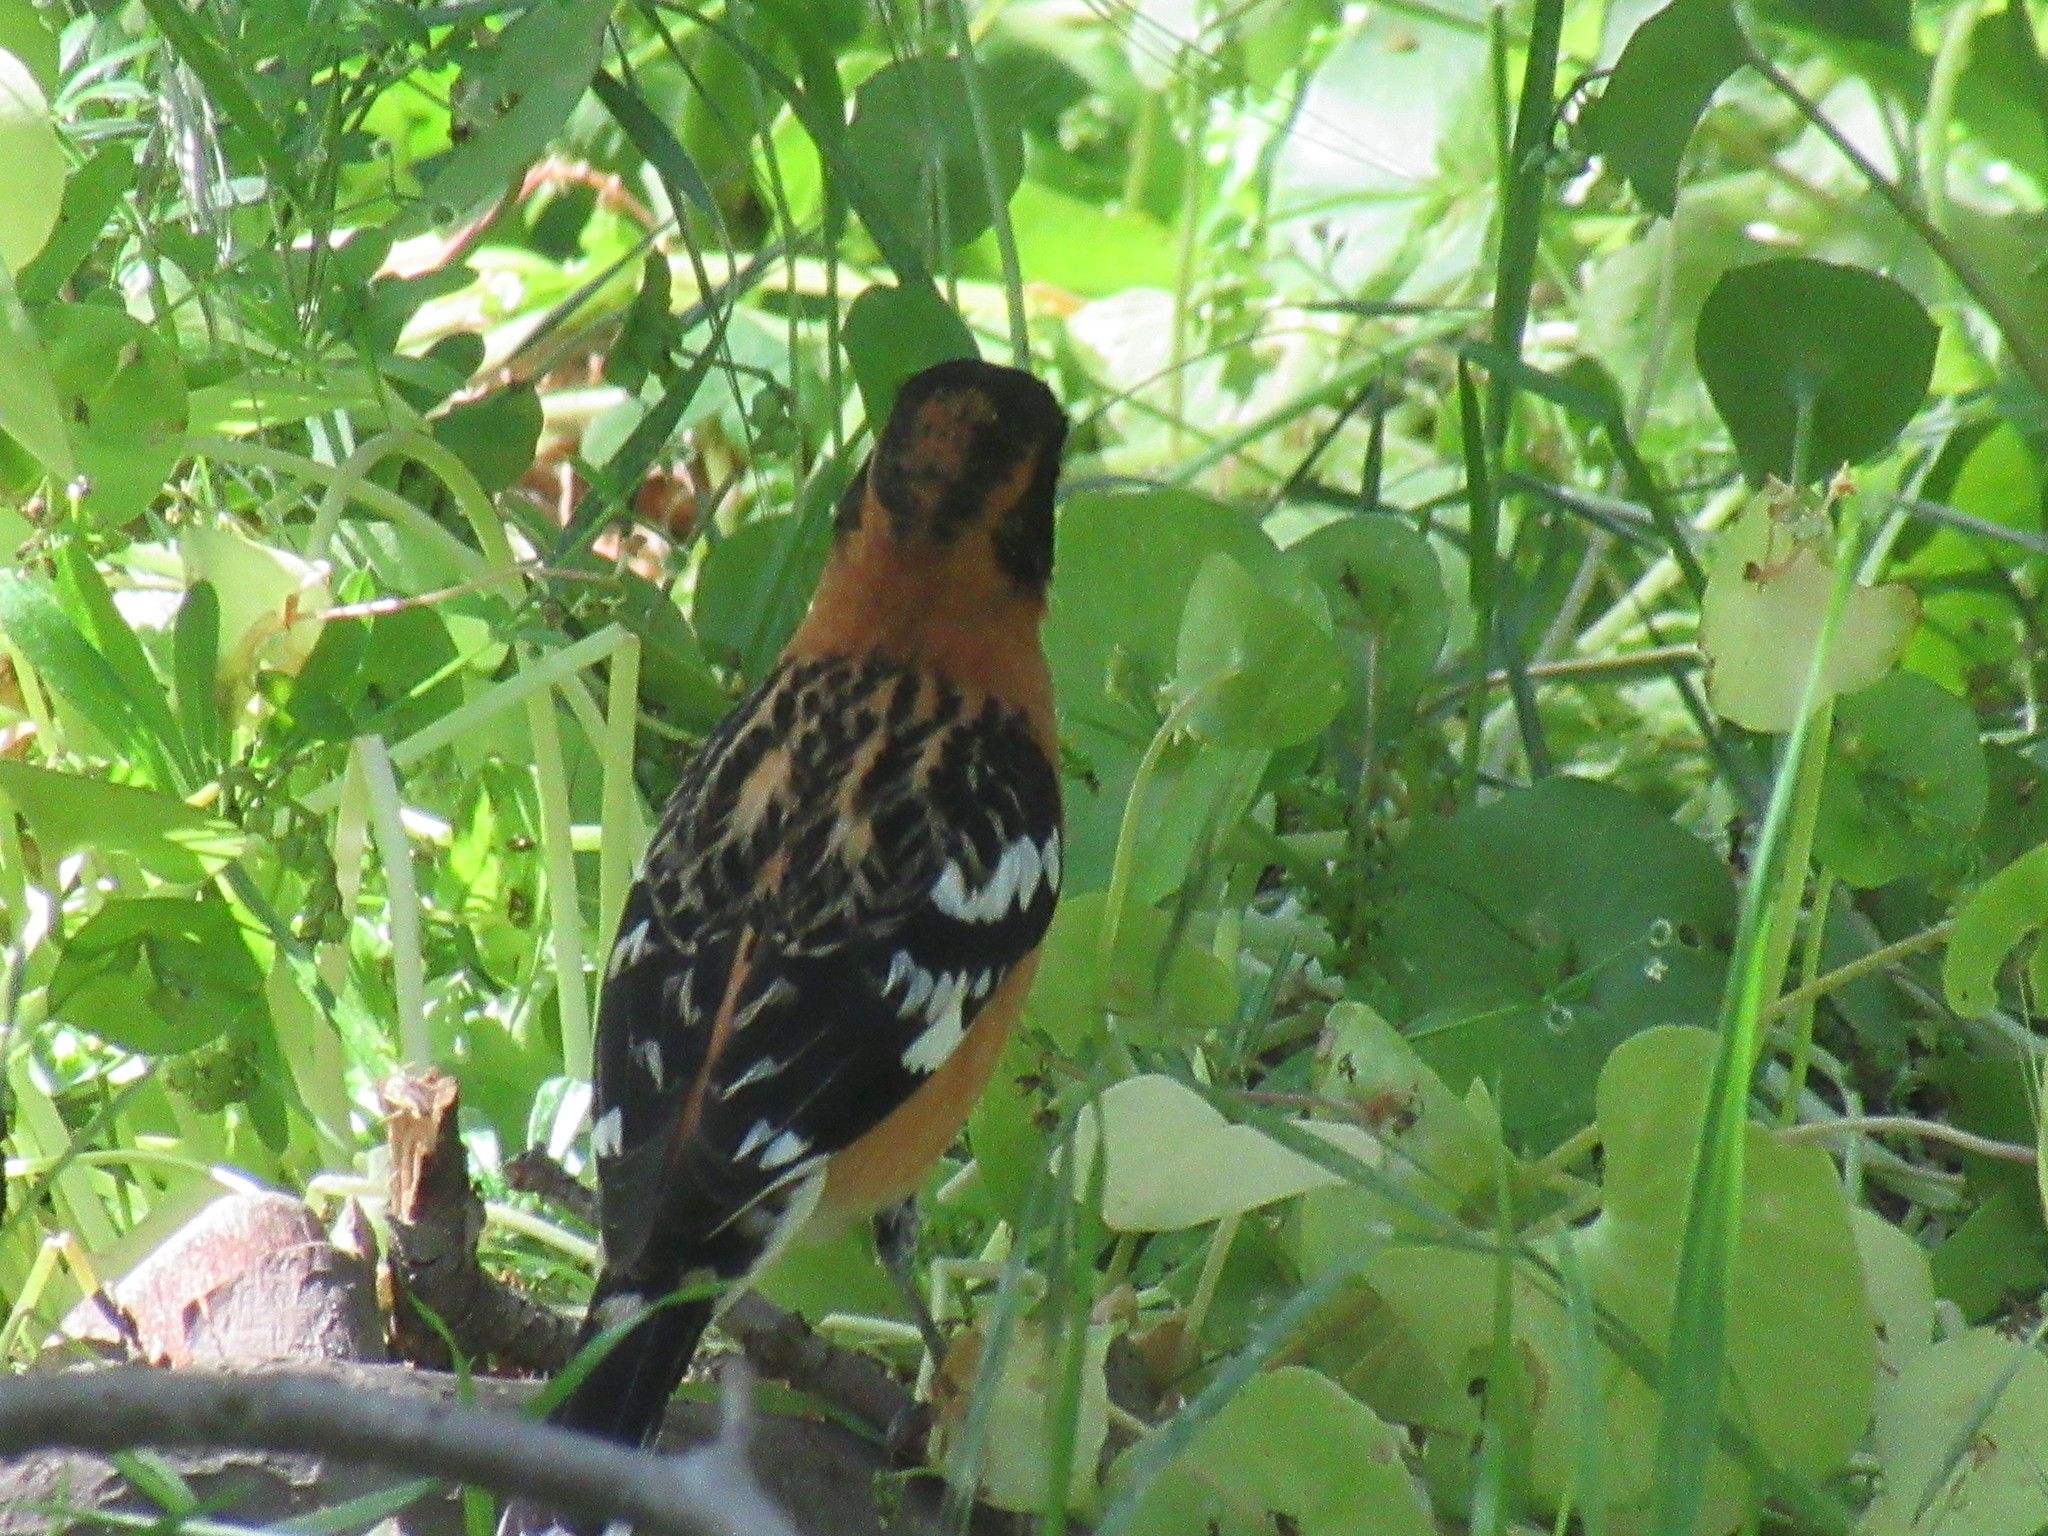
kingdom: Animalia
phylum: Chordata
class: Aves
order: Passeriformes
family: Cardinalidae
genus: Pheucticus
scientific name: Pheucticus melanocephalus
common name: Black-headed grosbeak
